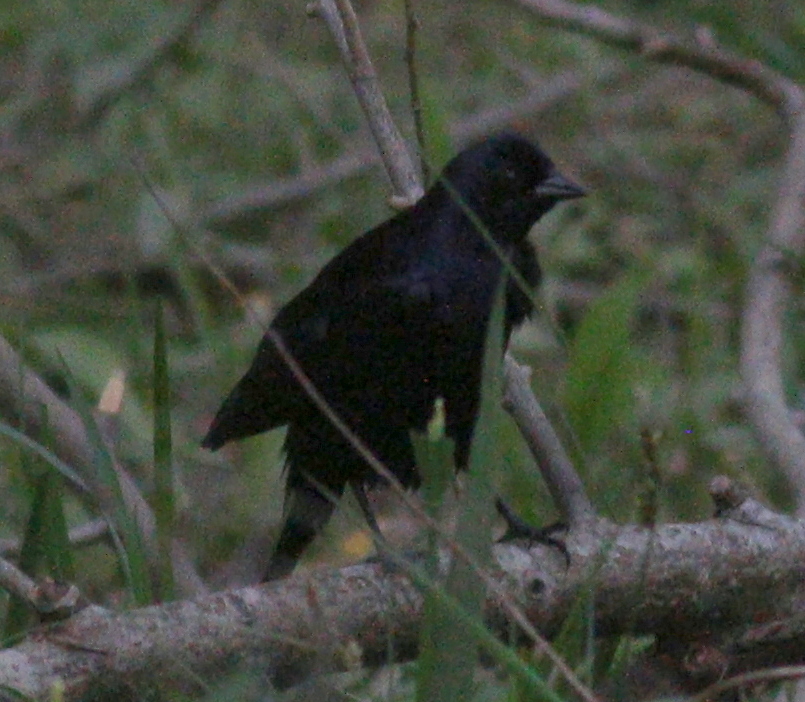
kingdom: Animalia
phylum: Chordata
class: Aves
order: Passeriformes
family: Icteridae
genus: Molothrus
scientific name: Molothrus bonariensis
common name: Shiny cowbird
